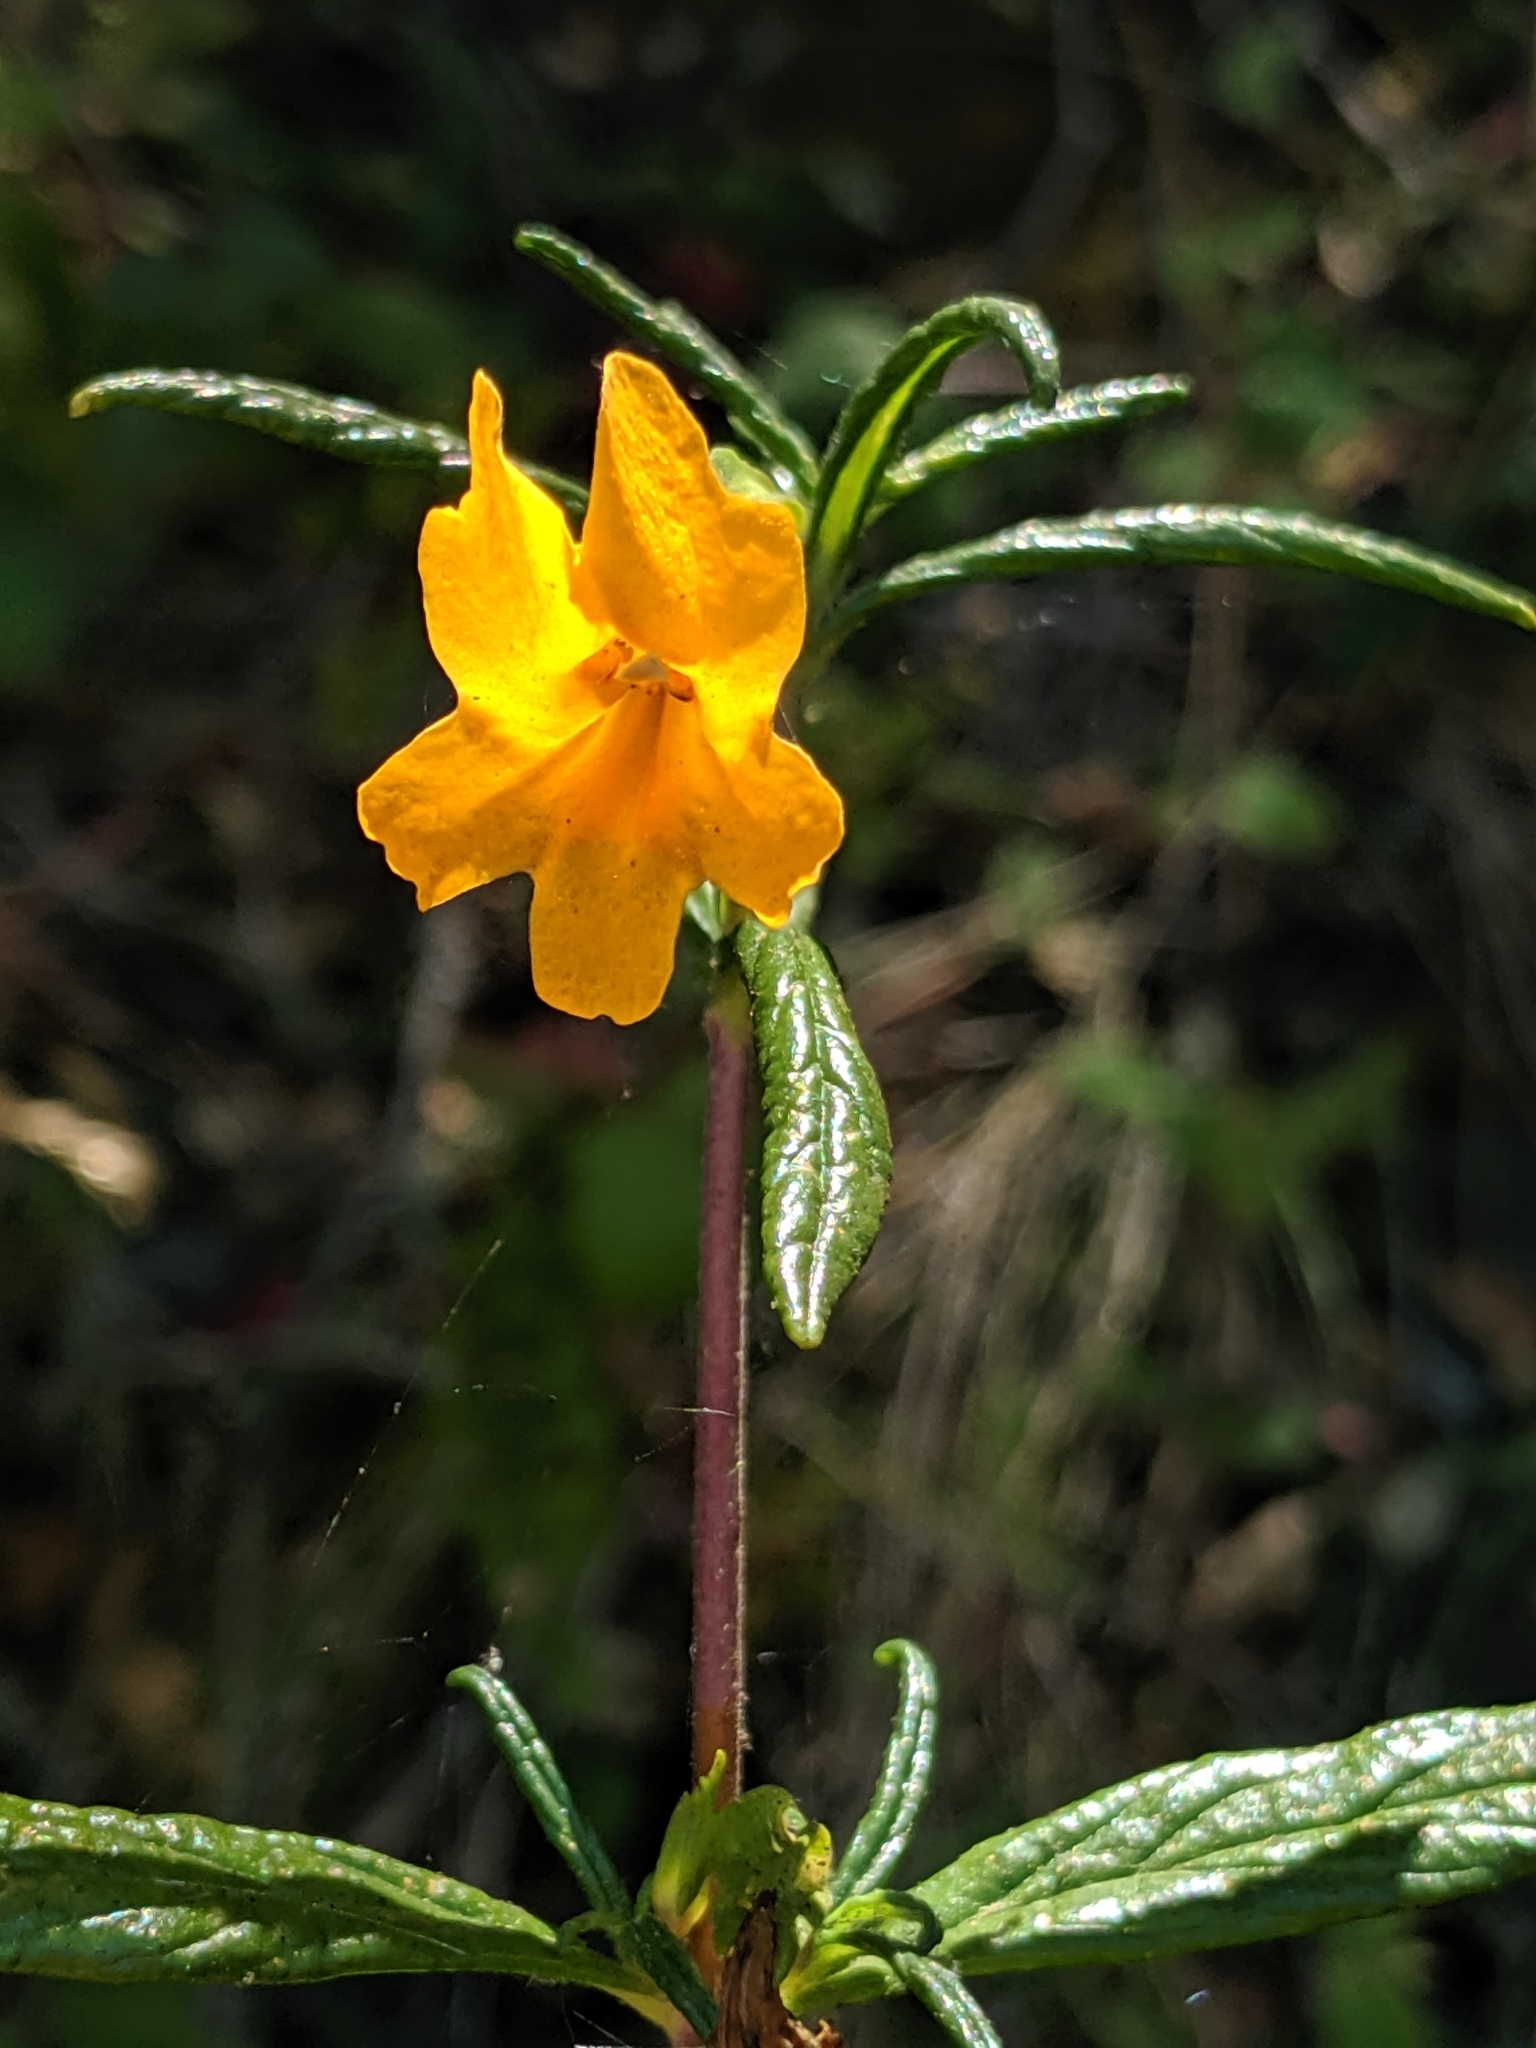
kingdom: Plantae
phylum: Tracheophyta
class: Magnoliopsida
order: Lamiales
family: Phrymaceae
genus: Diplacus
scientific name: Diplacus aurantiacus
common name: Bush monkey-flower
